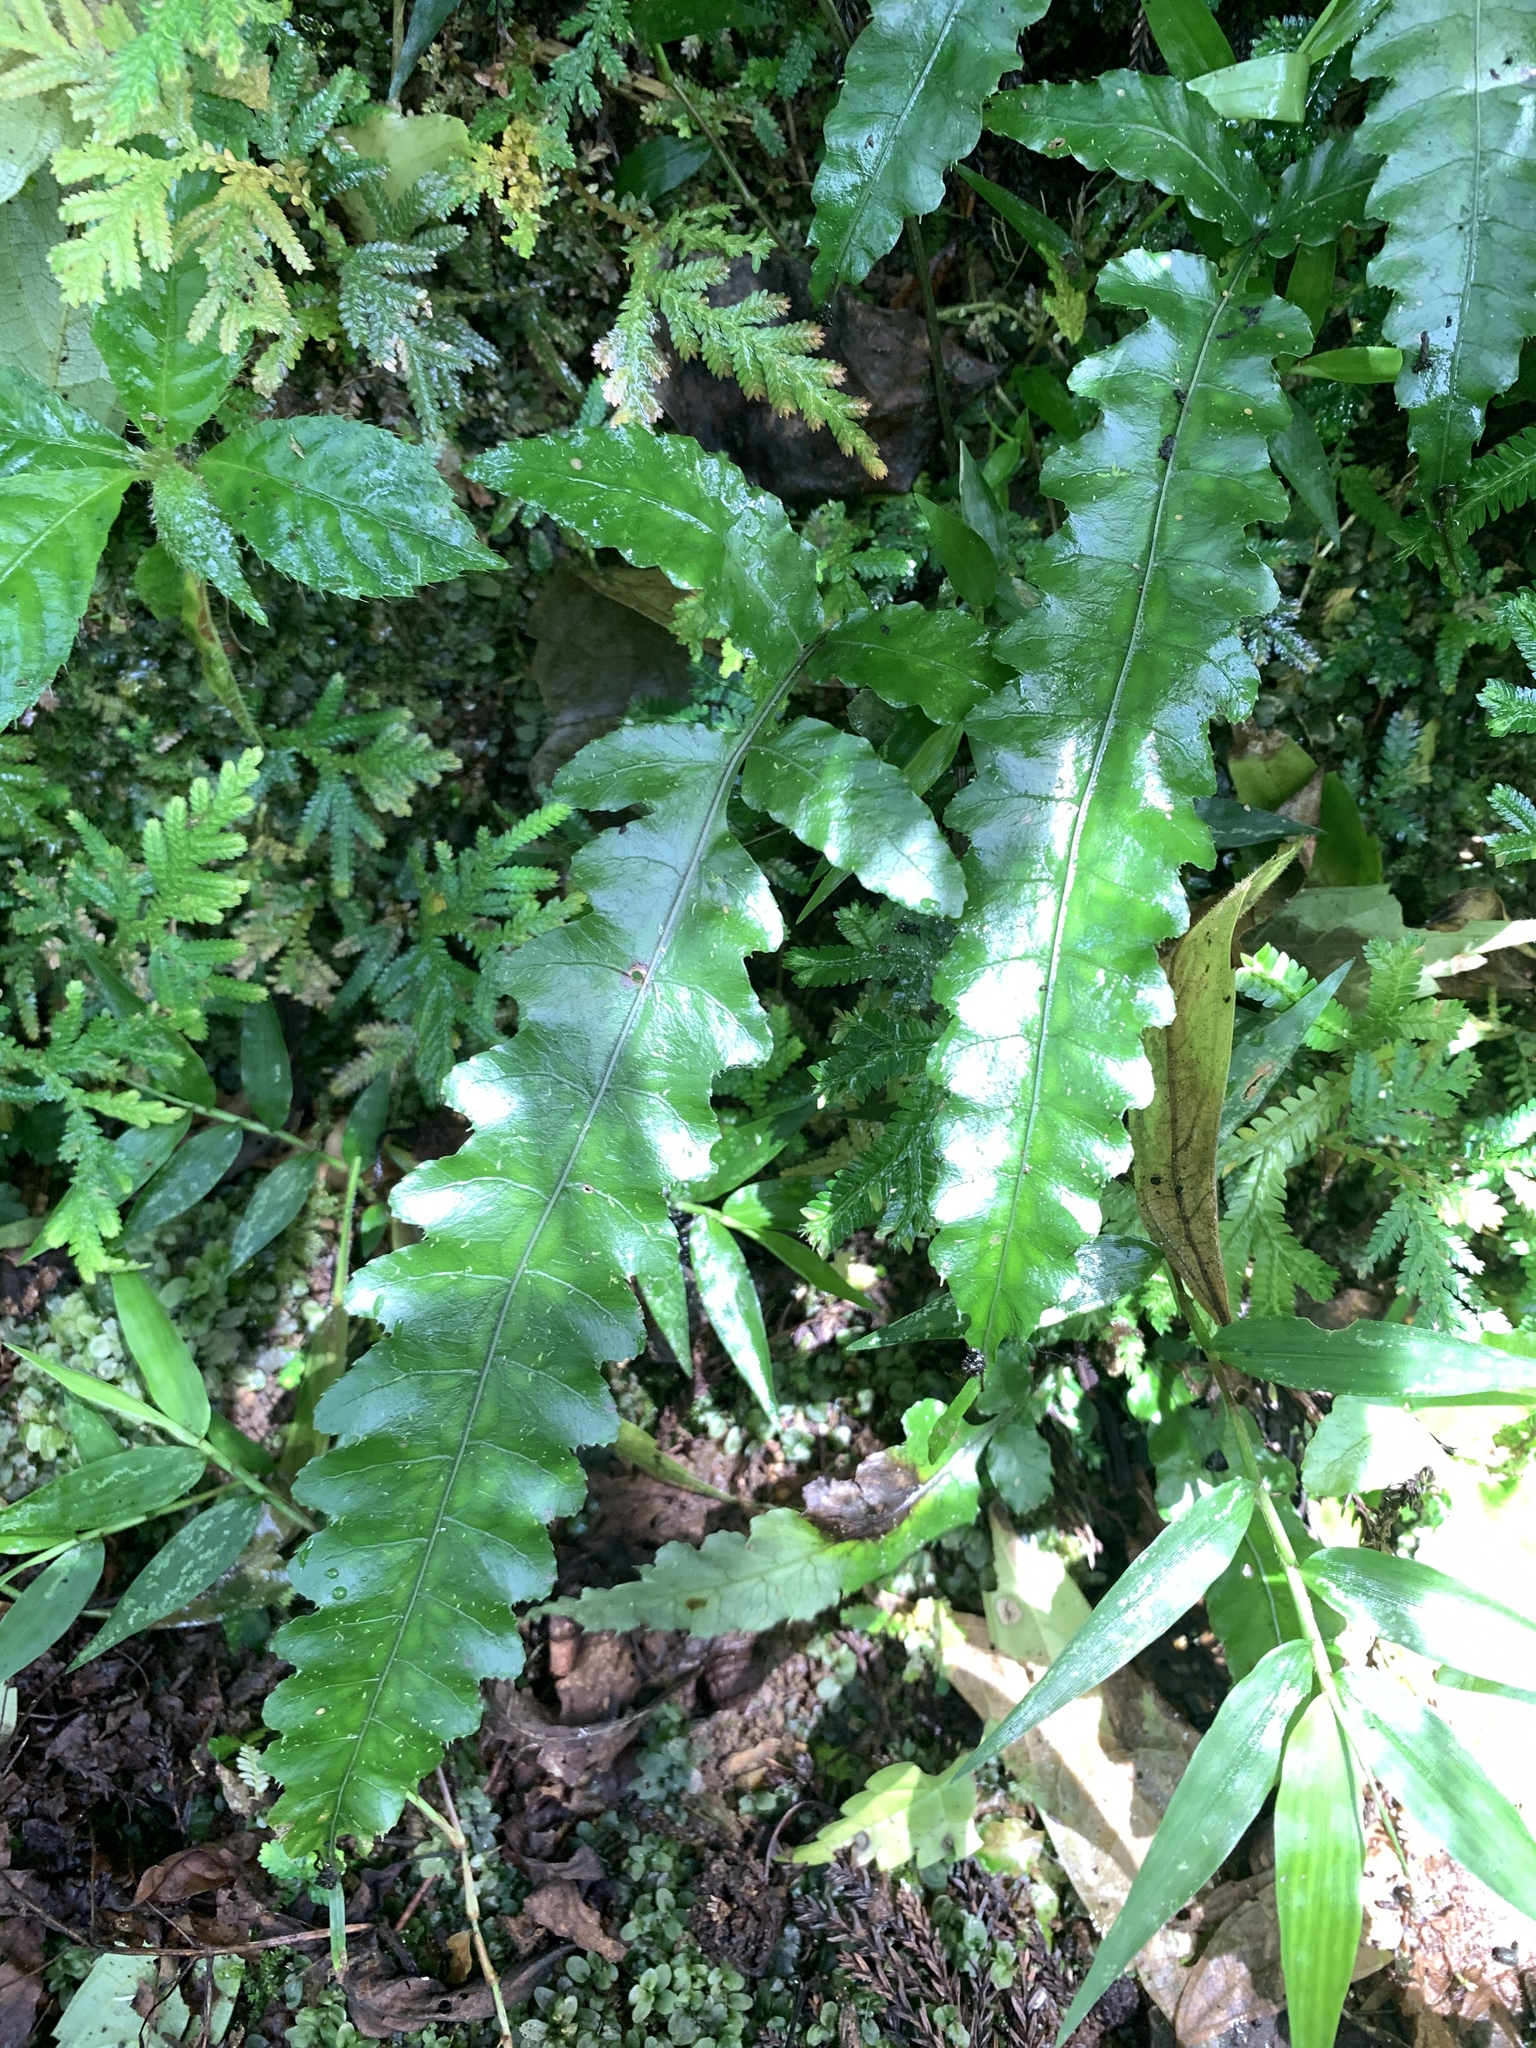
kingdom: Plantae
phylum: Tracheophyta
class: Polypodiopsida
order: Polypodiales
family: Dryopteridaceae
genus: Bolbitis
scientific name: Bolbitis subcordata
